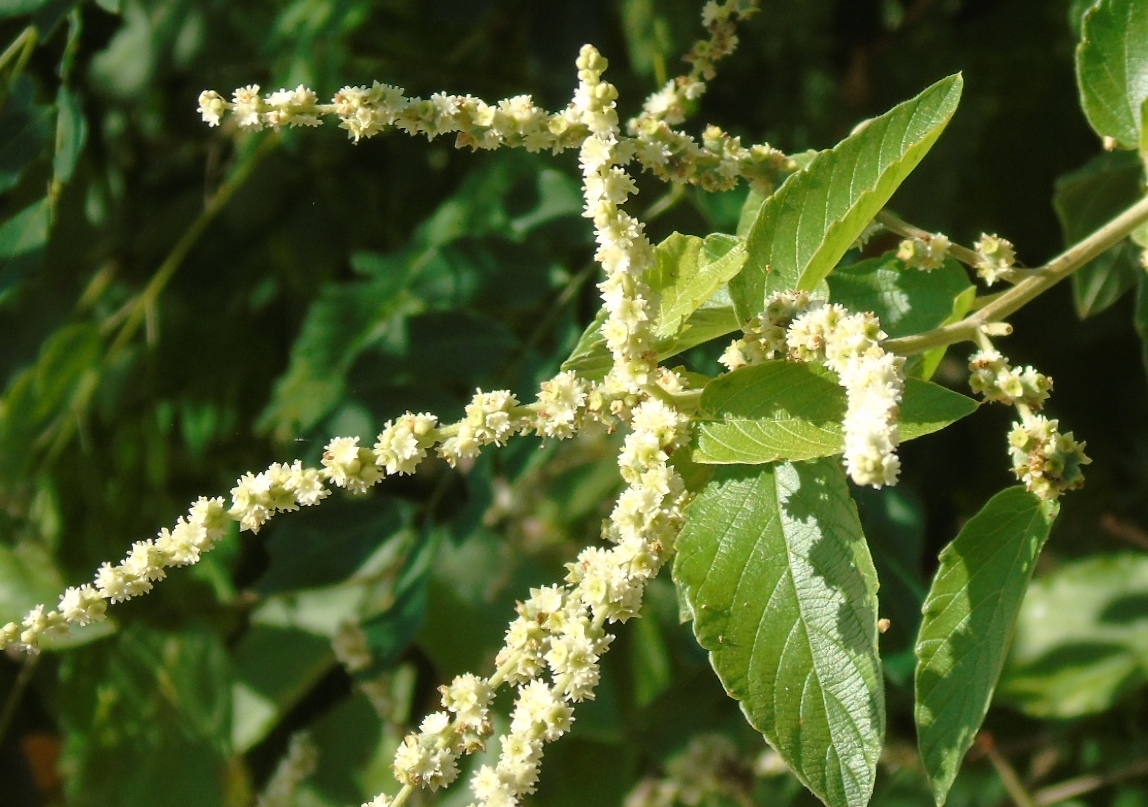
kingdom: Plantae
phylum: Tracheophyta
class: Magnoliopsida
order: Rosales
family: Rhamnaceae
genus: Gouania
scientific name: Gouania rosei
